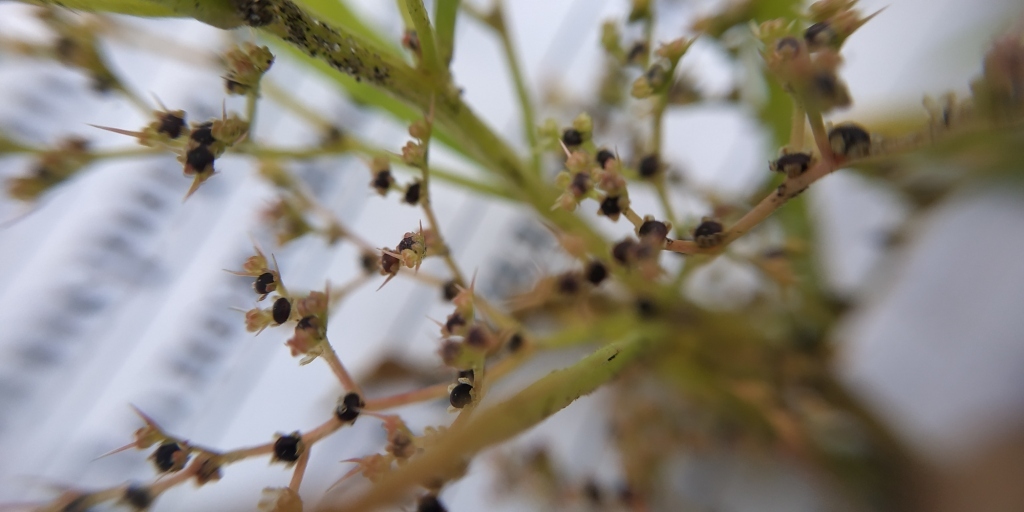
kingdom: Plantae
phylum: Tracheophyta
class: Magnoliopsida
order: Caryophyllales
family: Amaranthaceae
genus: Teloxys
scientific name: Teloxys aristata
